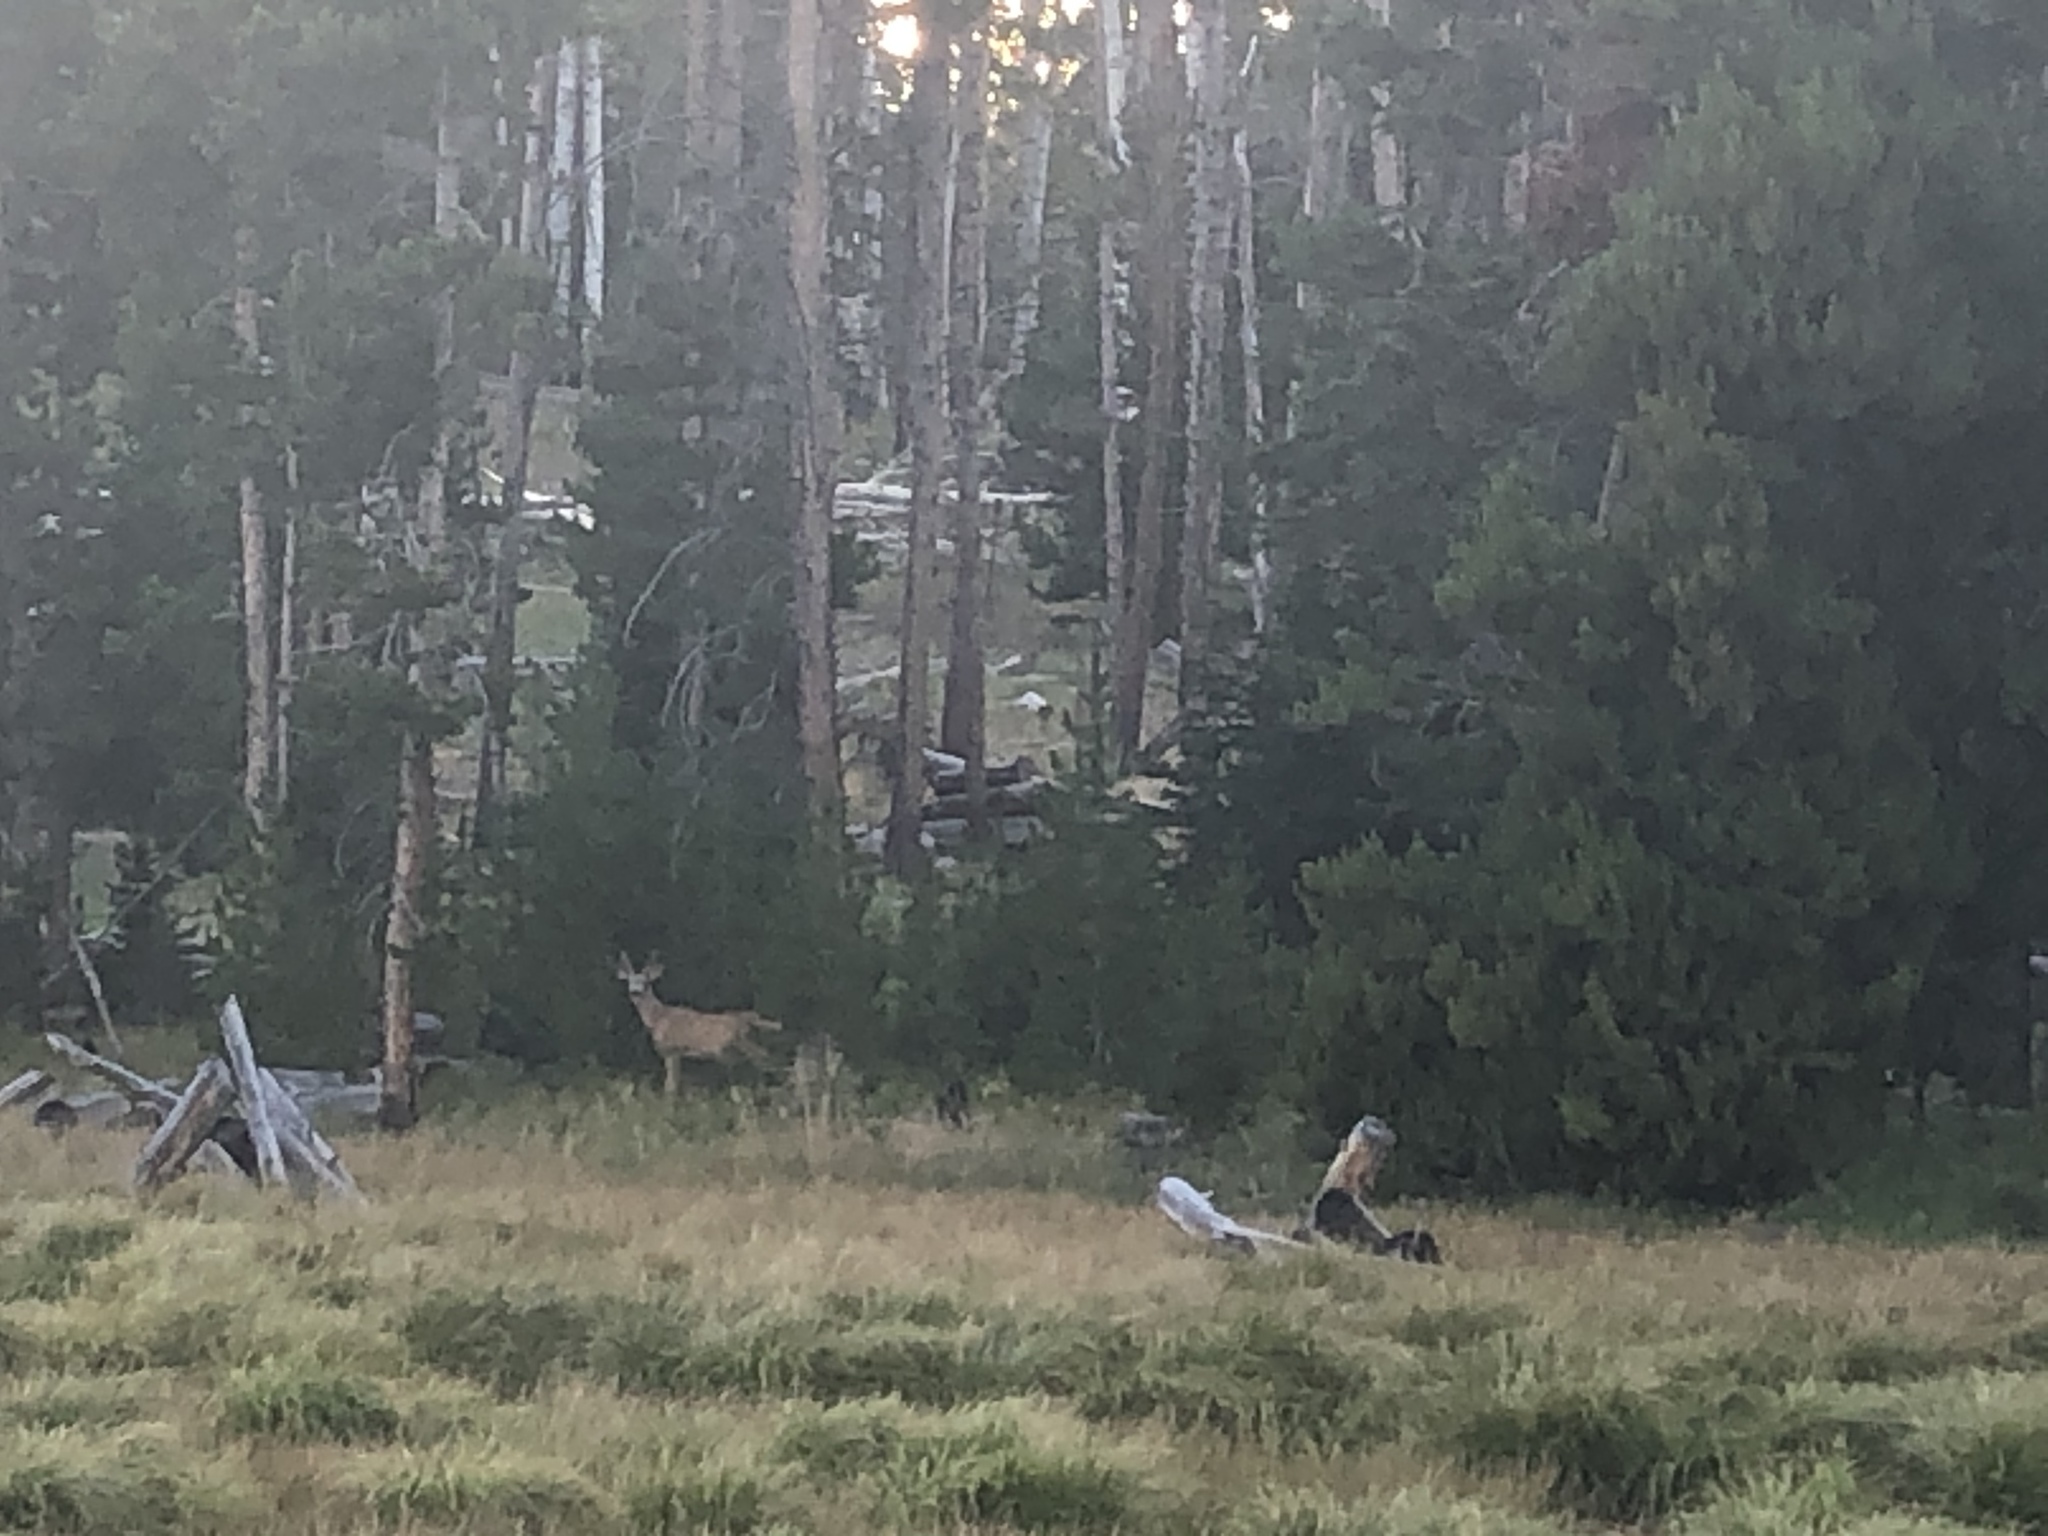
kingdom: Animalia
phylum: Chordata
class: Mammalia
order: Artiodactyla
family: Cervidae
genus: Odocoileus
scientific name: Odocoileus hemionus
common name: Mule deer
